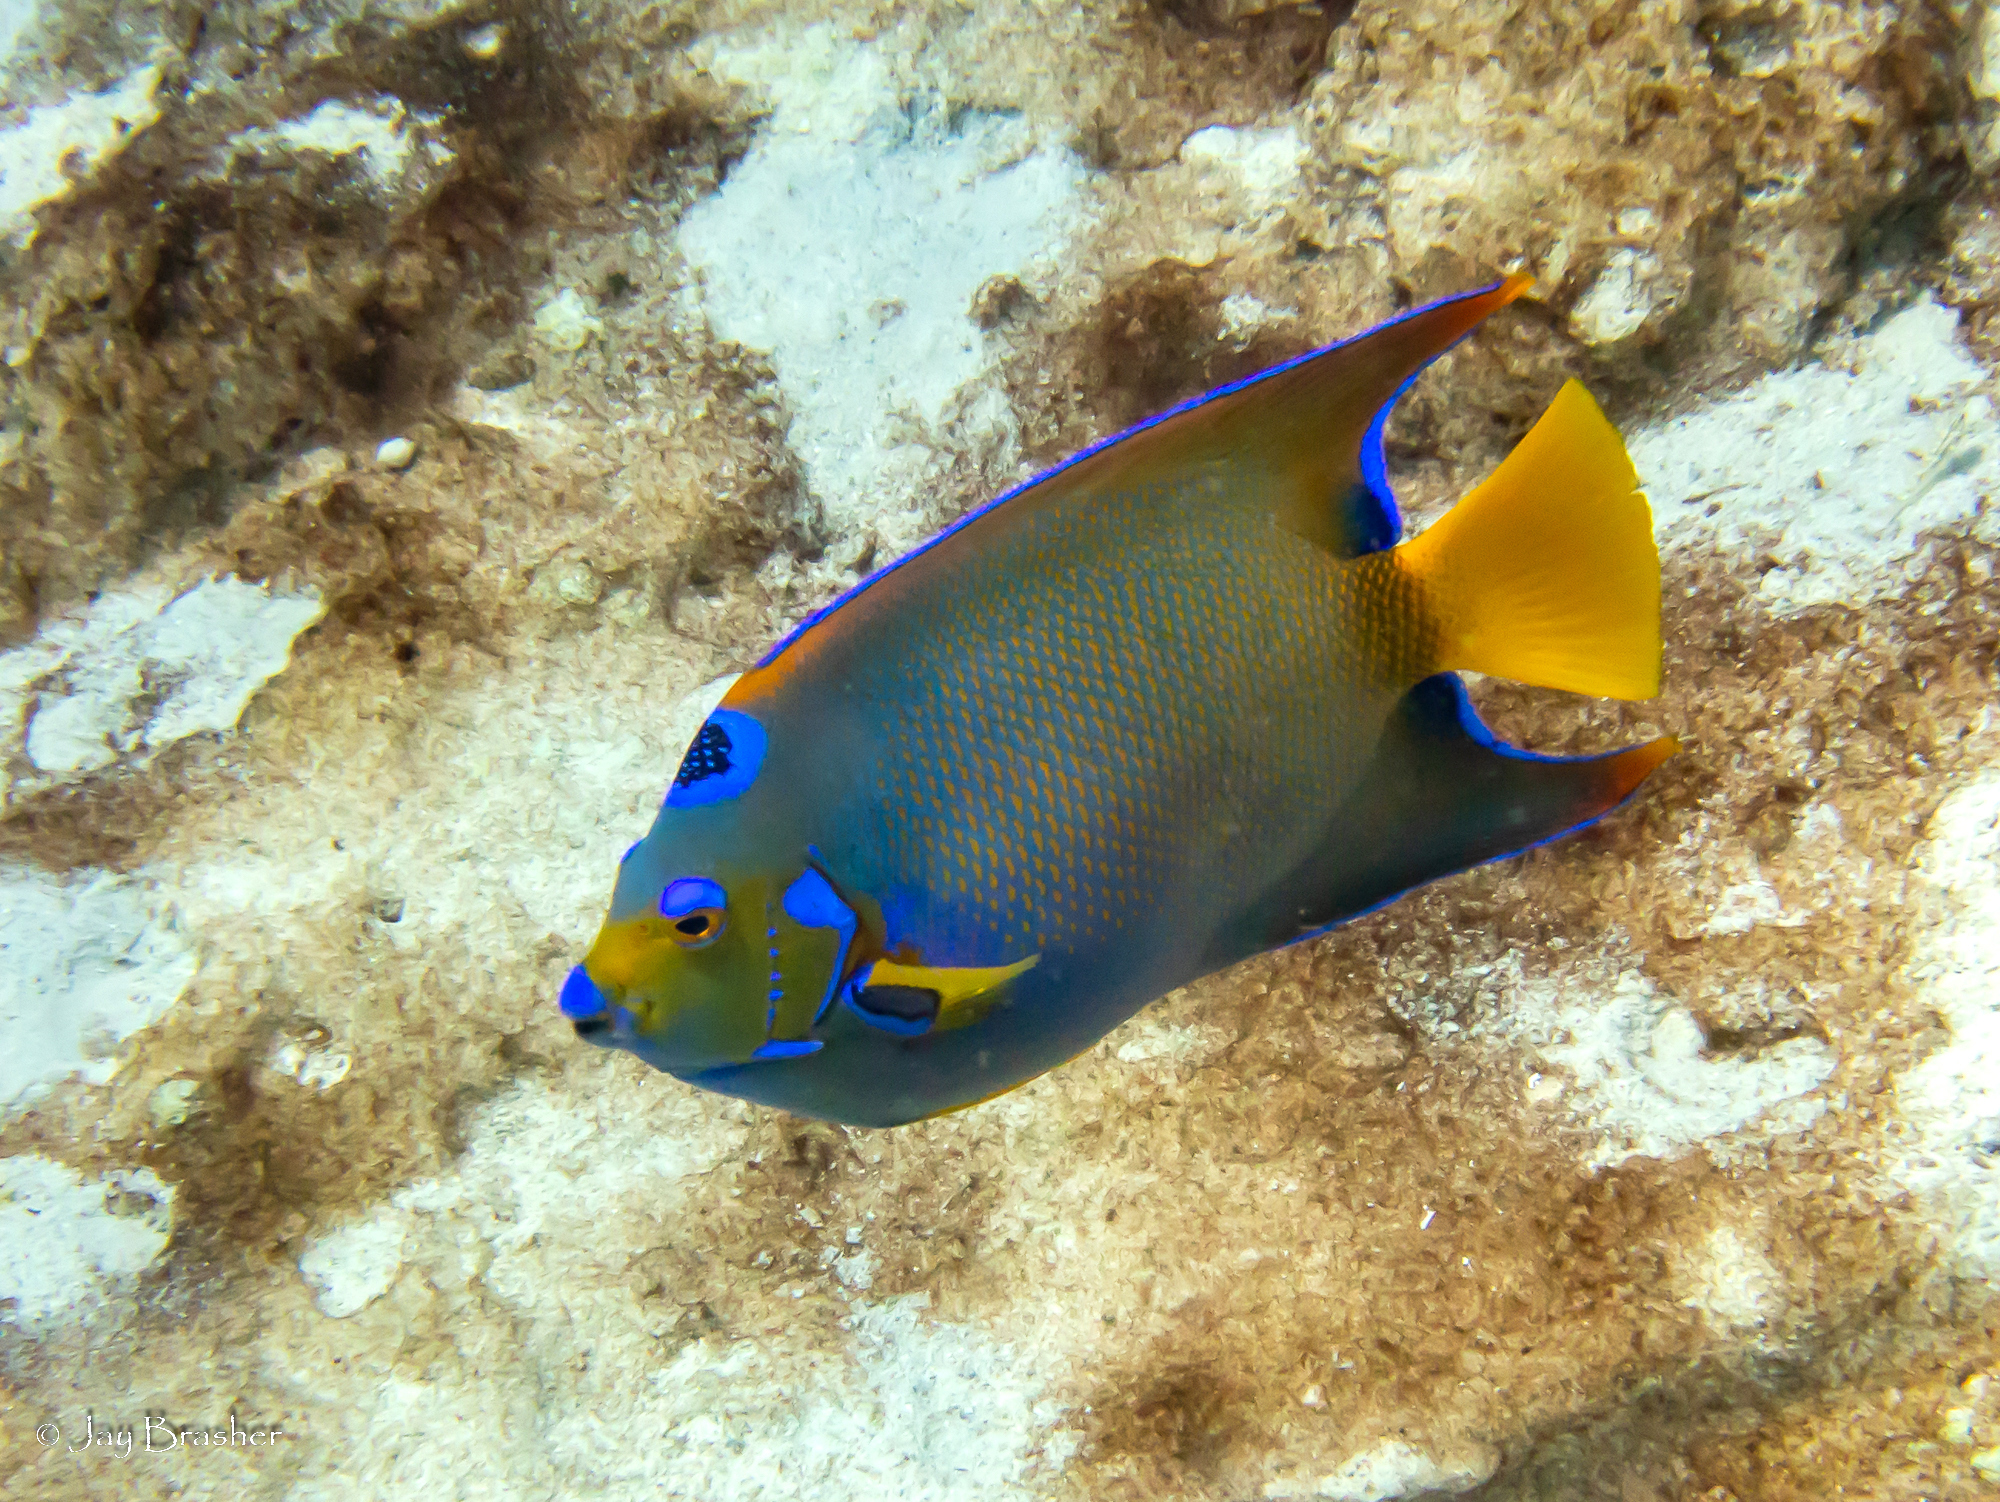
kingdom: Animalia
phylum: Chordata
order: Perciformes
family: Pomacanthidae
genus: Holacanthus
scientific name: Holacanthus ciliaris
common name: Queen angelfish
